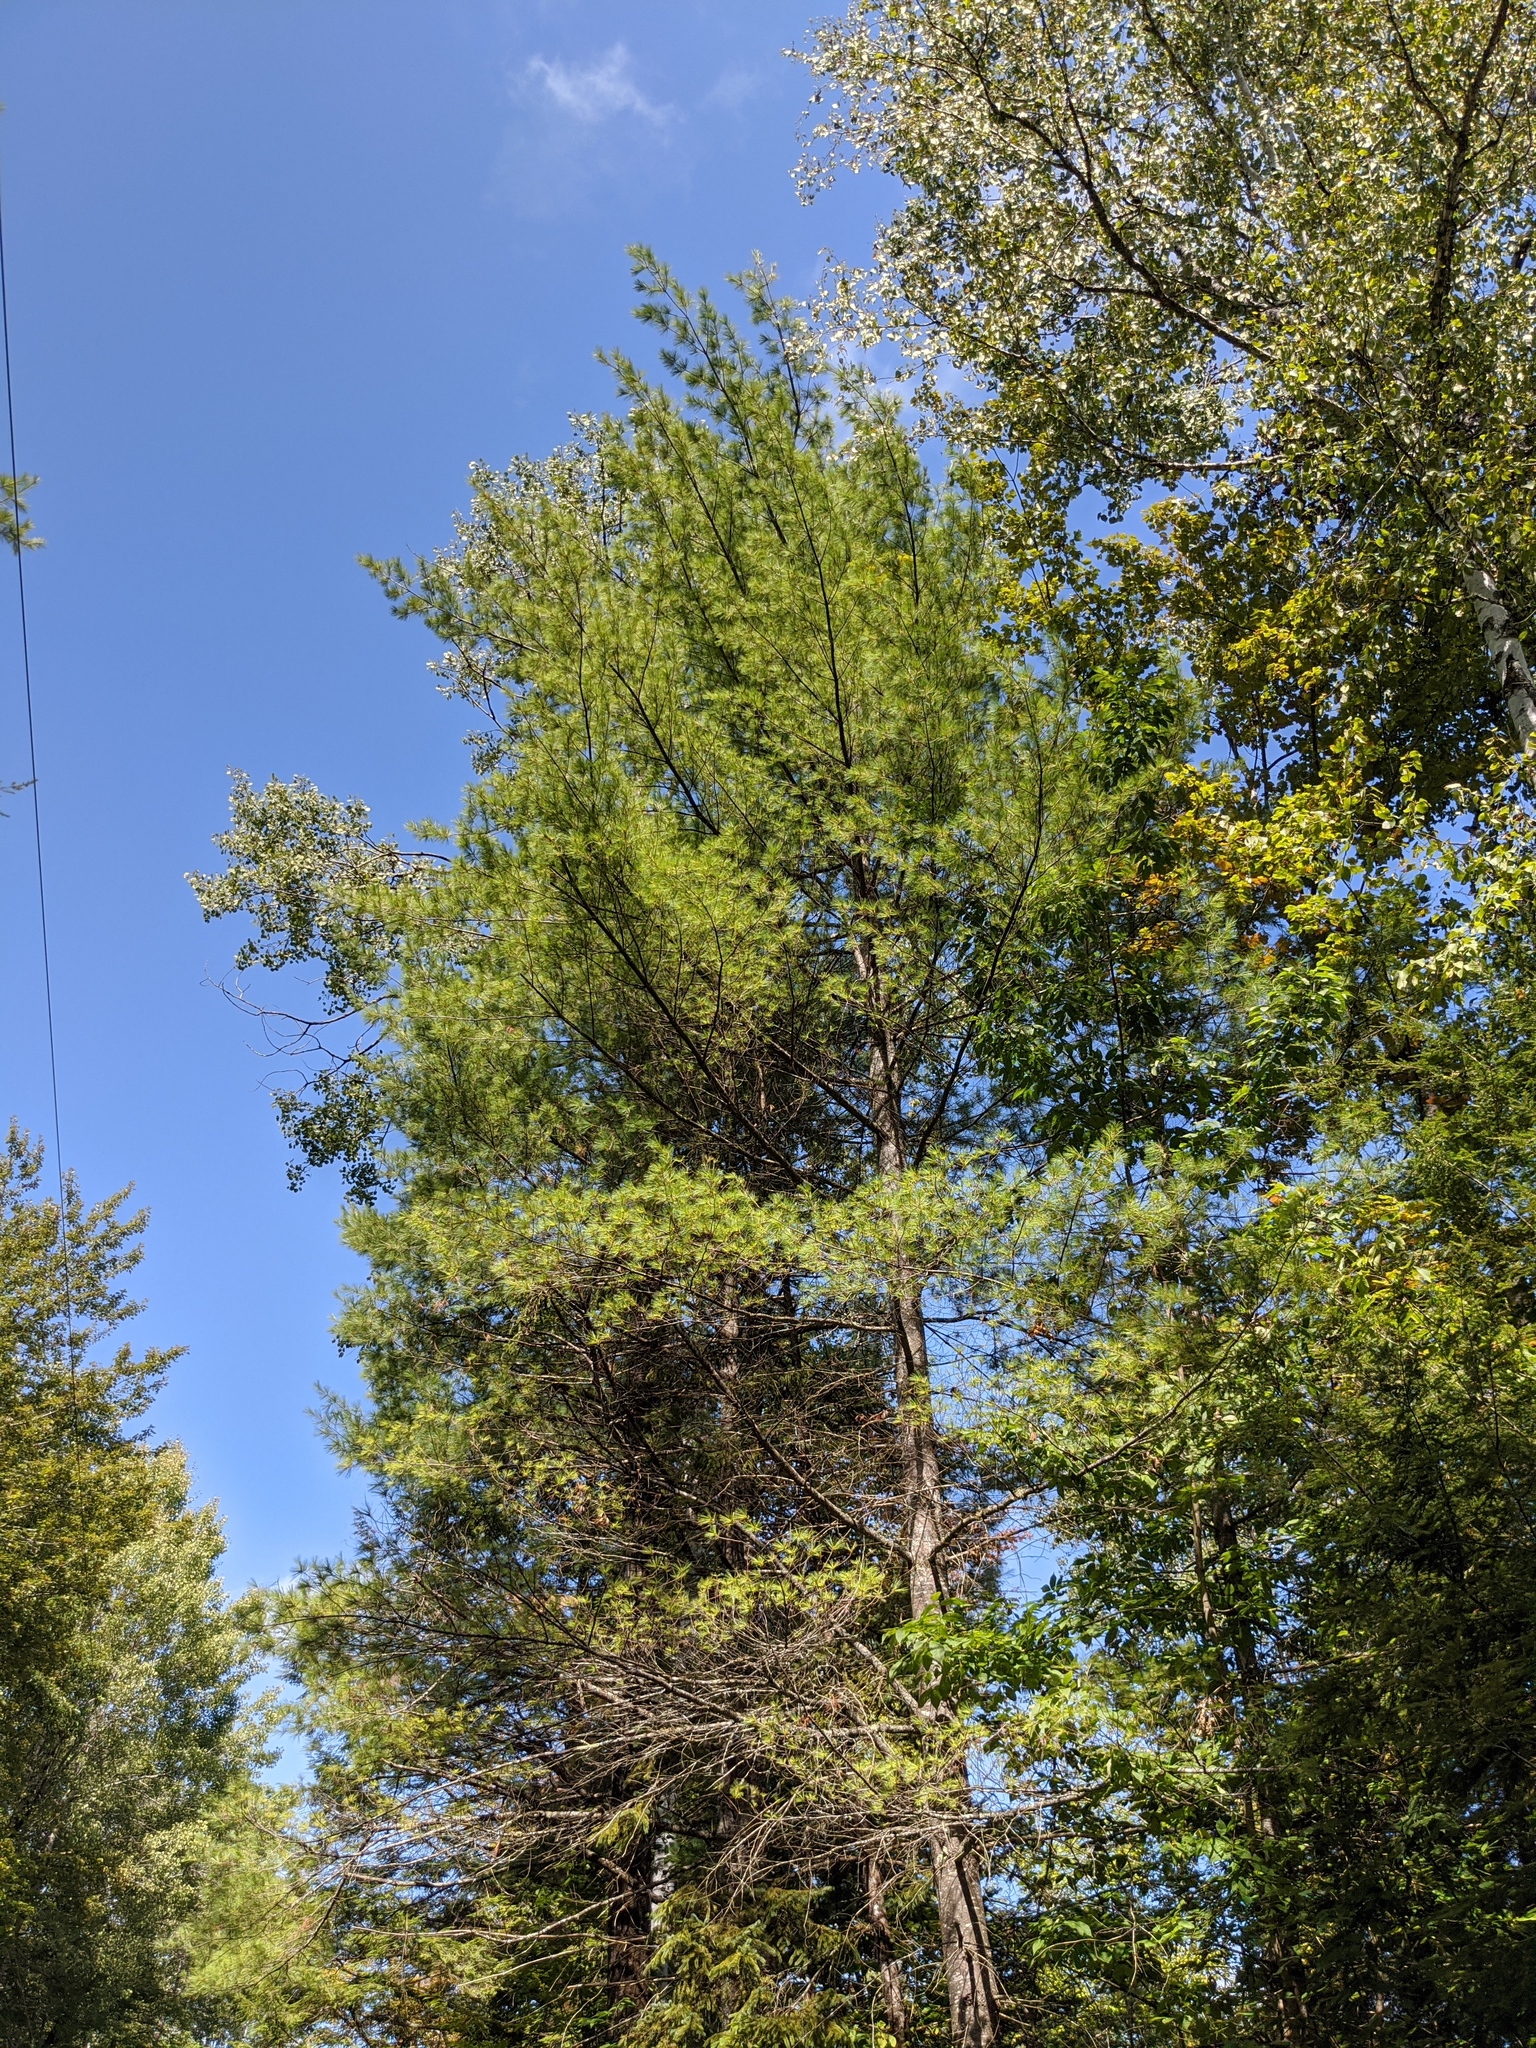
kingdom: Plantae
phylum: Tracheophyta
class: Pinopsida
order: Pinales
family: Pinaceae
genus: Pinus
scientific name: Pinus strobus
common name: Weymouth pine
